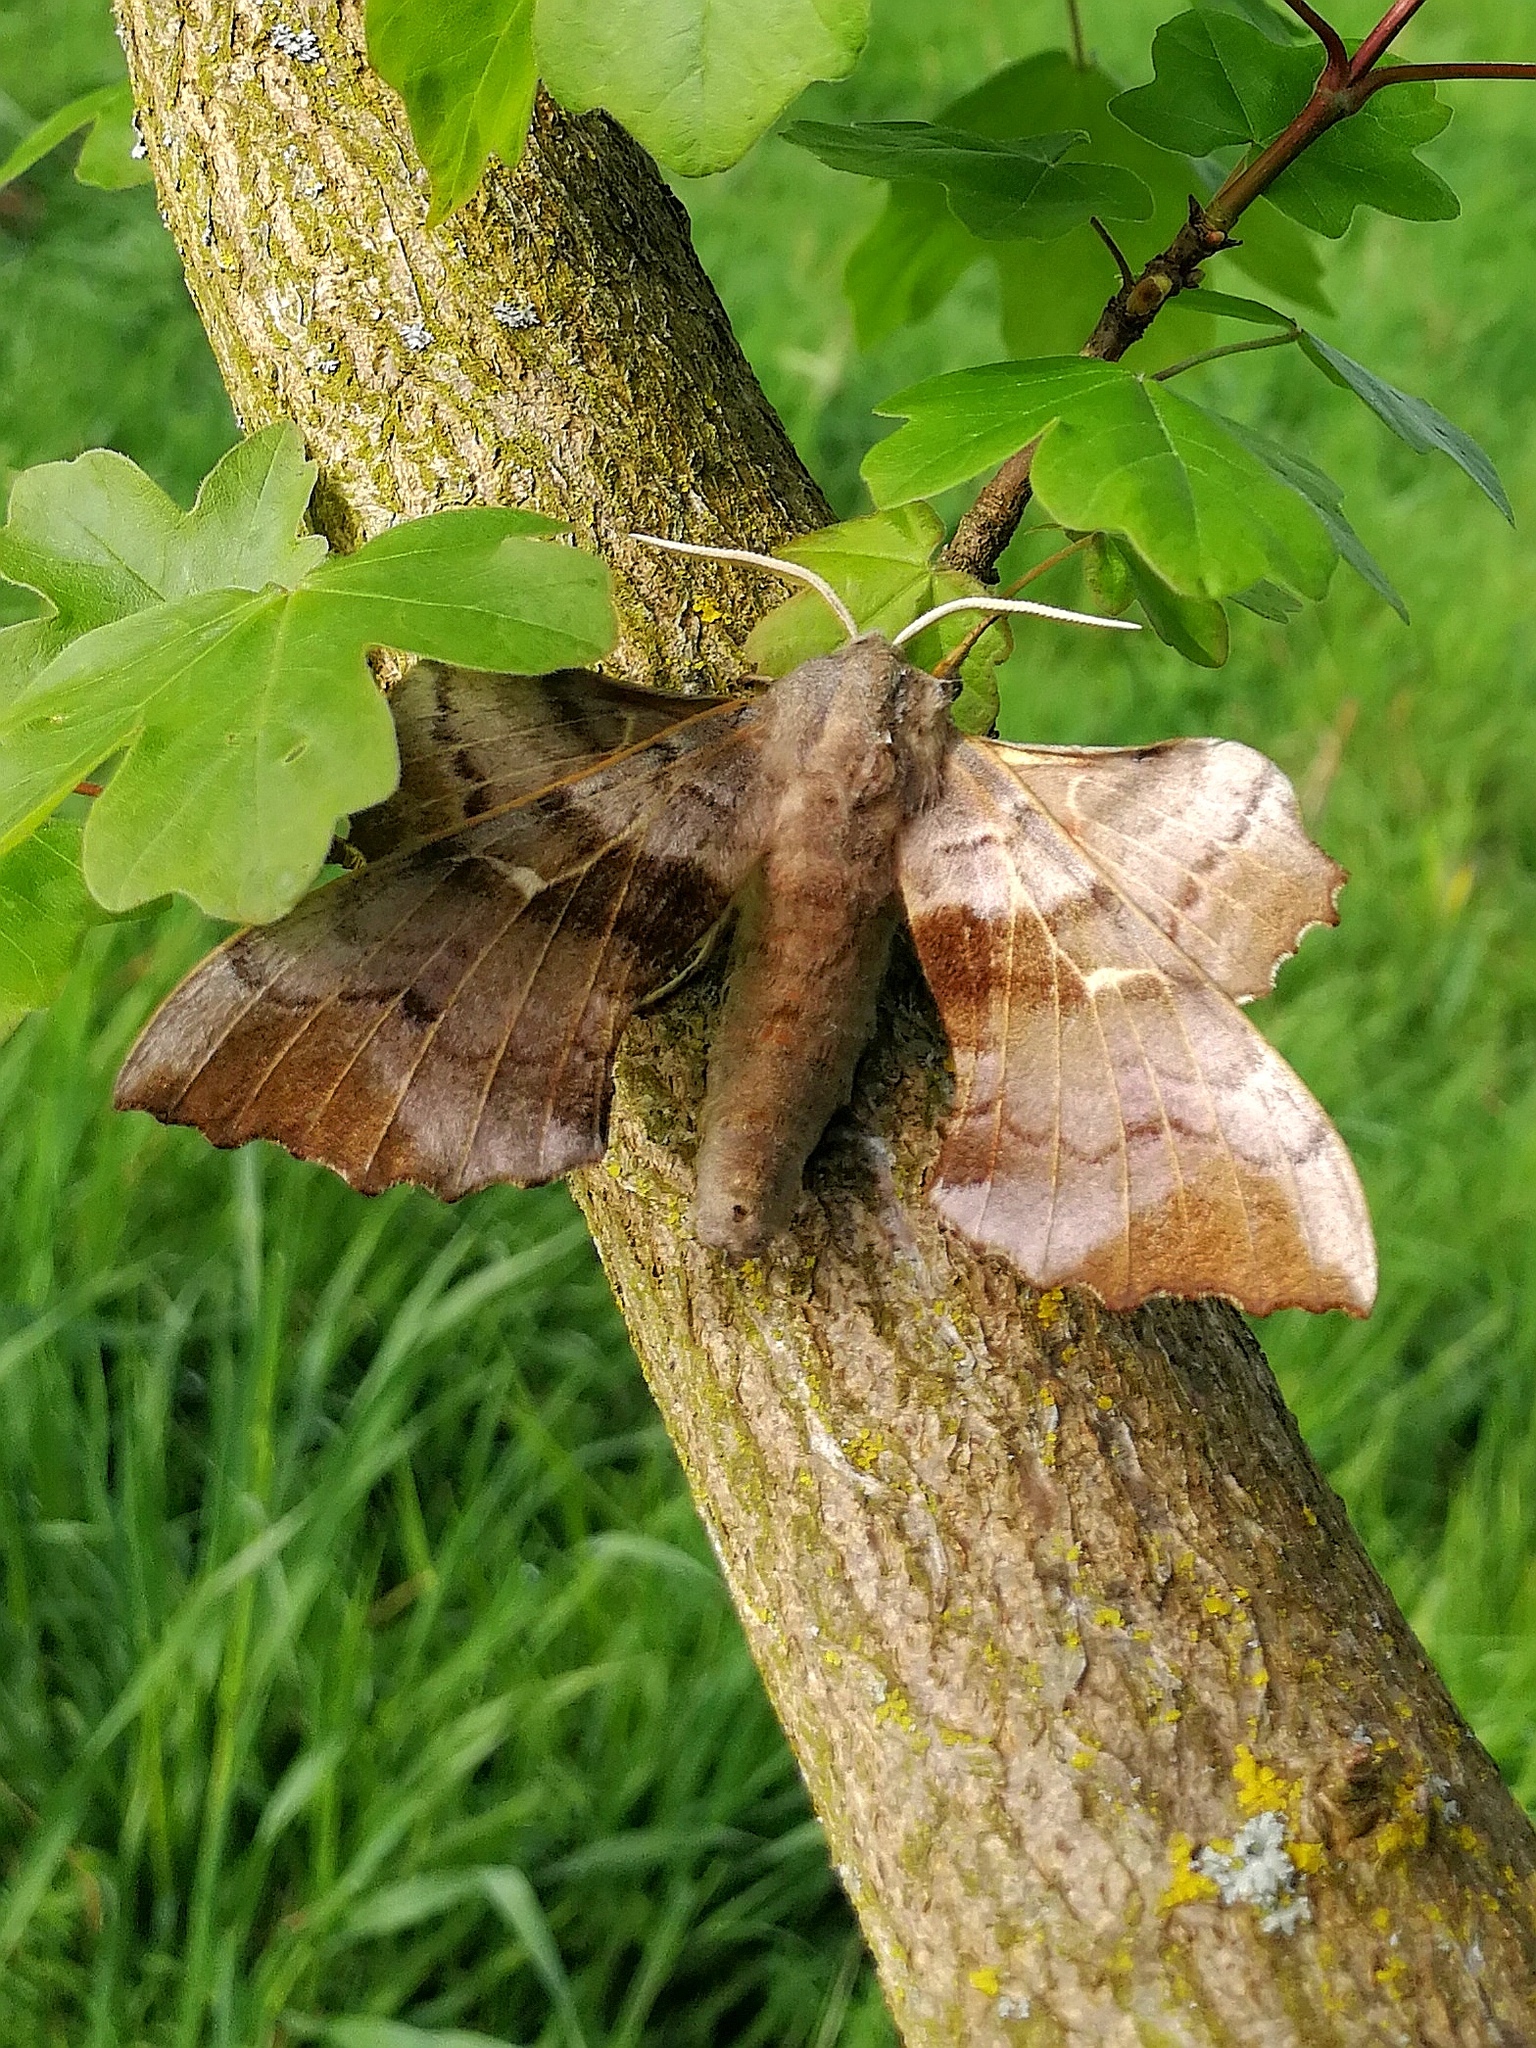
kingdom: Animalia
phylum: Arthropoda
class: Insecta
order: Lepidoptera
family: Sphingidae
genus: Laothoe
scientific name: Laothoe populi
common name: Poplar hawk-moth
